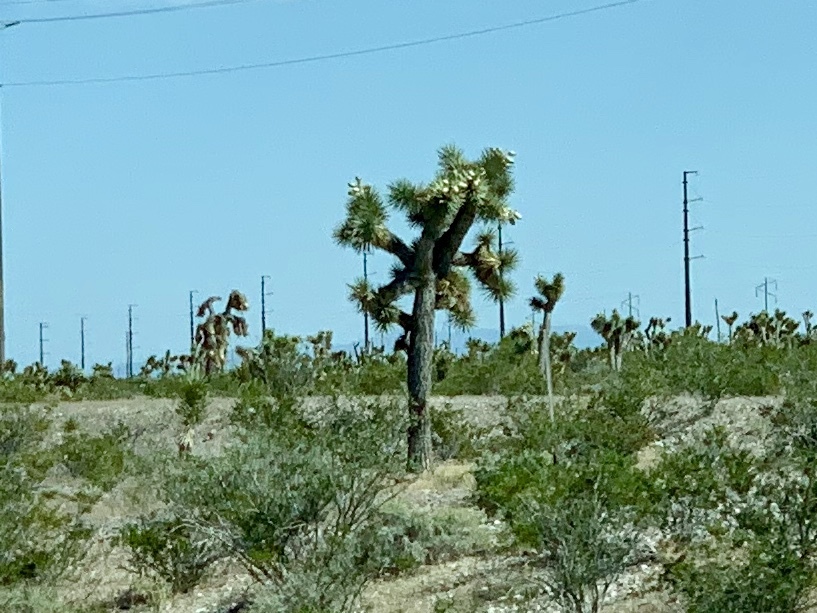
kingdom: Plantae
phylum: Tracheophyta
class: Liliopsida
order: Asparagales
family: Asparagaceae
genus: Yucca
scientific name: Yucca brevifolia
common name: Joshua tree
